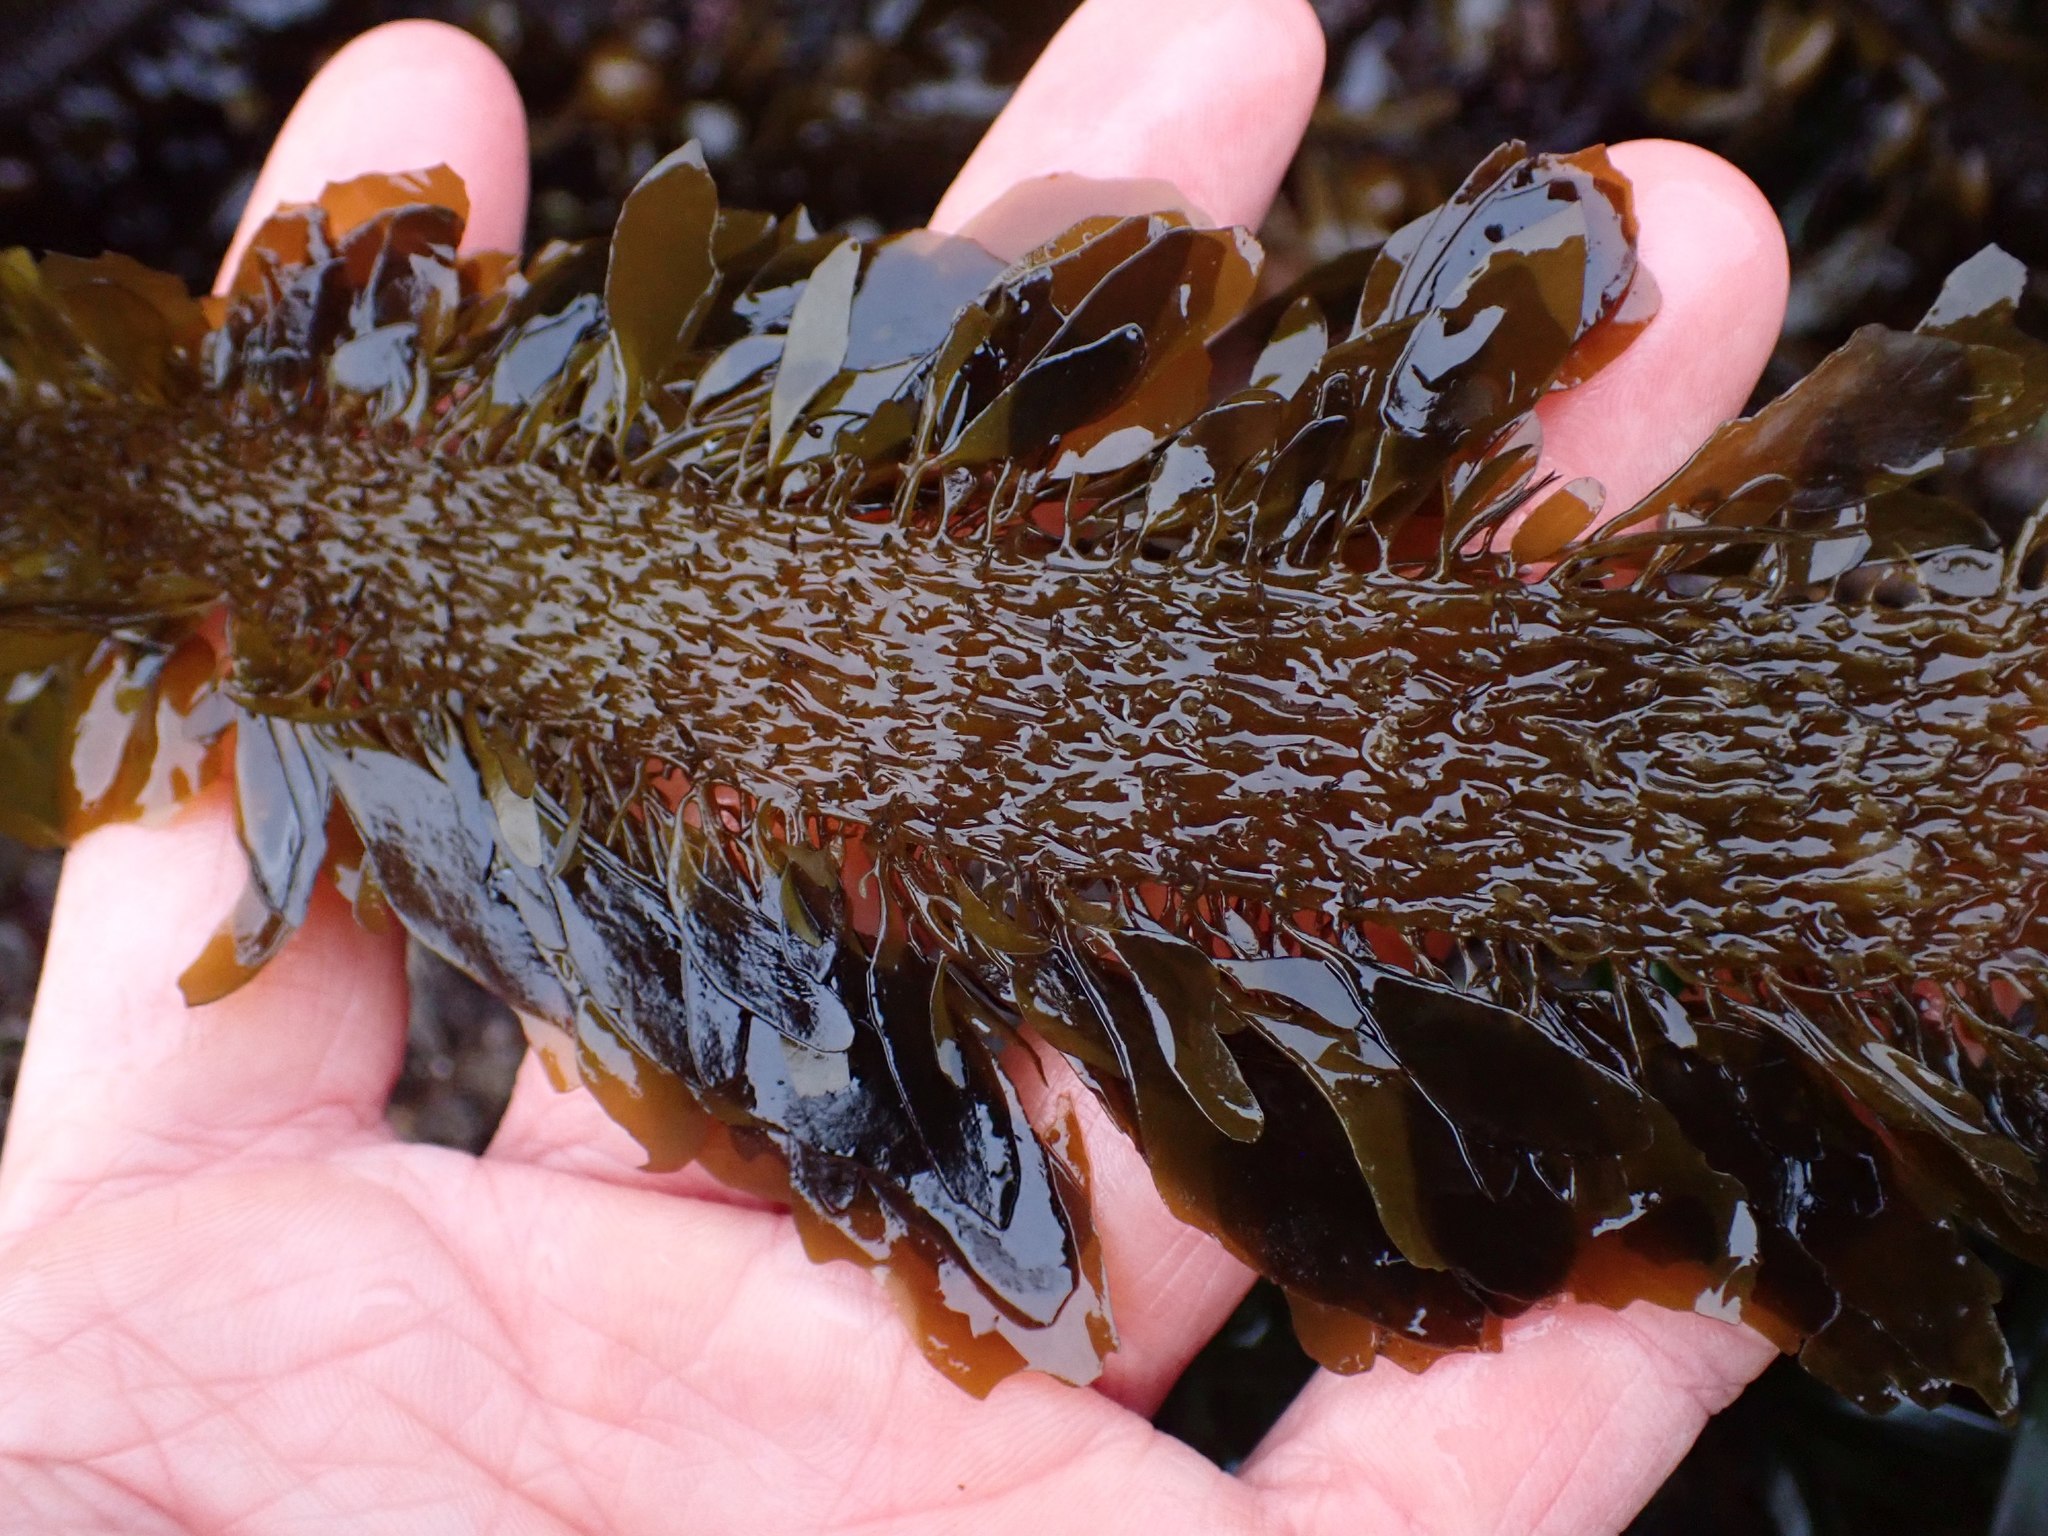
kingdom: Chromista
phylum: Ochrophyta
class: Phaeophyceae
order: Laminariales
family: Lessoniaceae
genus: Egregia
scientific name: Egregia menziesii
